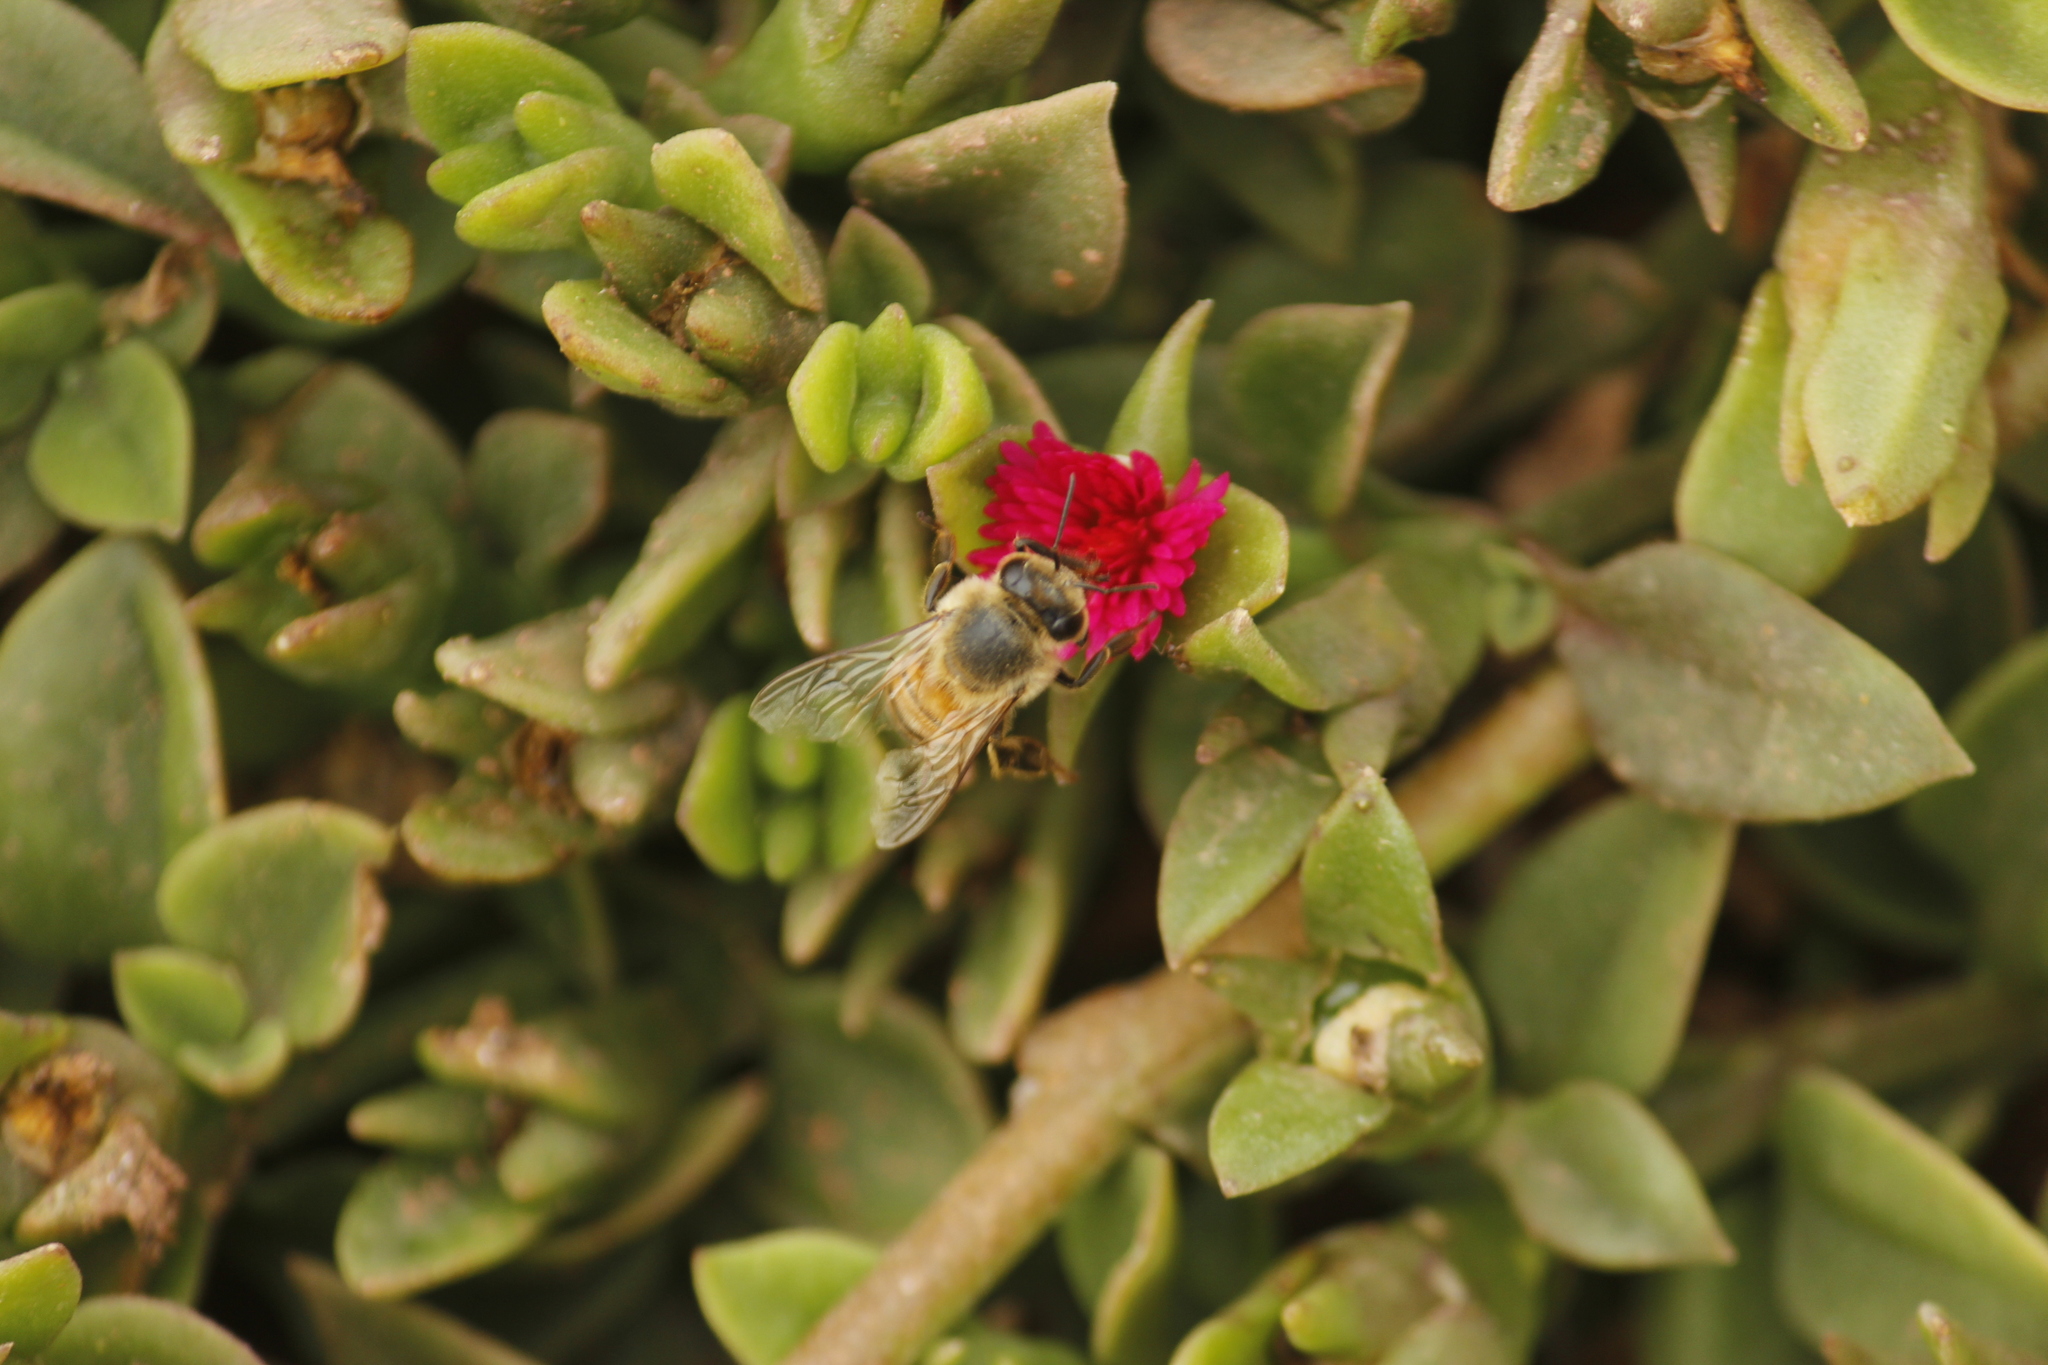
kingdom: Animalia
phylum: Arthropoda
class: Insecta
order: Hymenoptera
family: Apidae
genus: Apis
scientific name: Apis mellifera
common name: Honey bee
